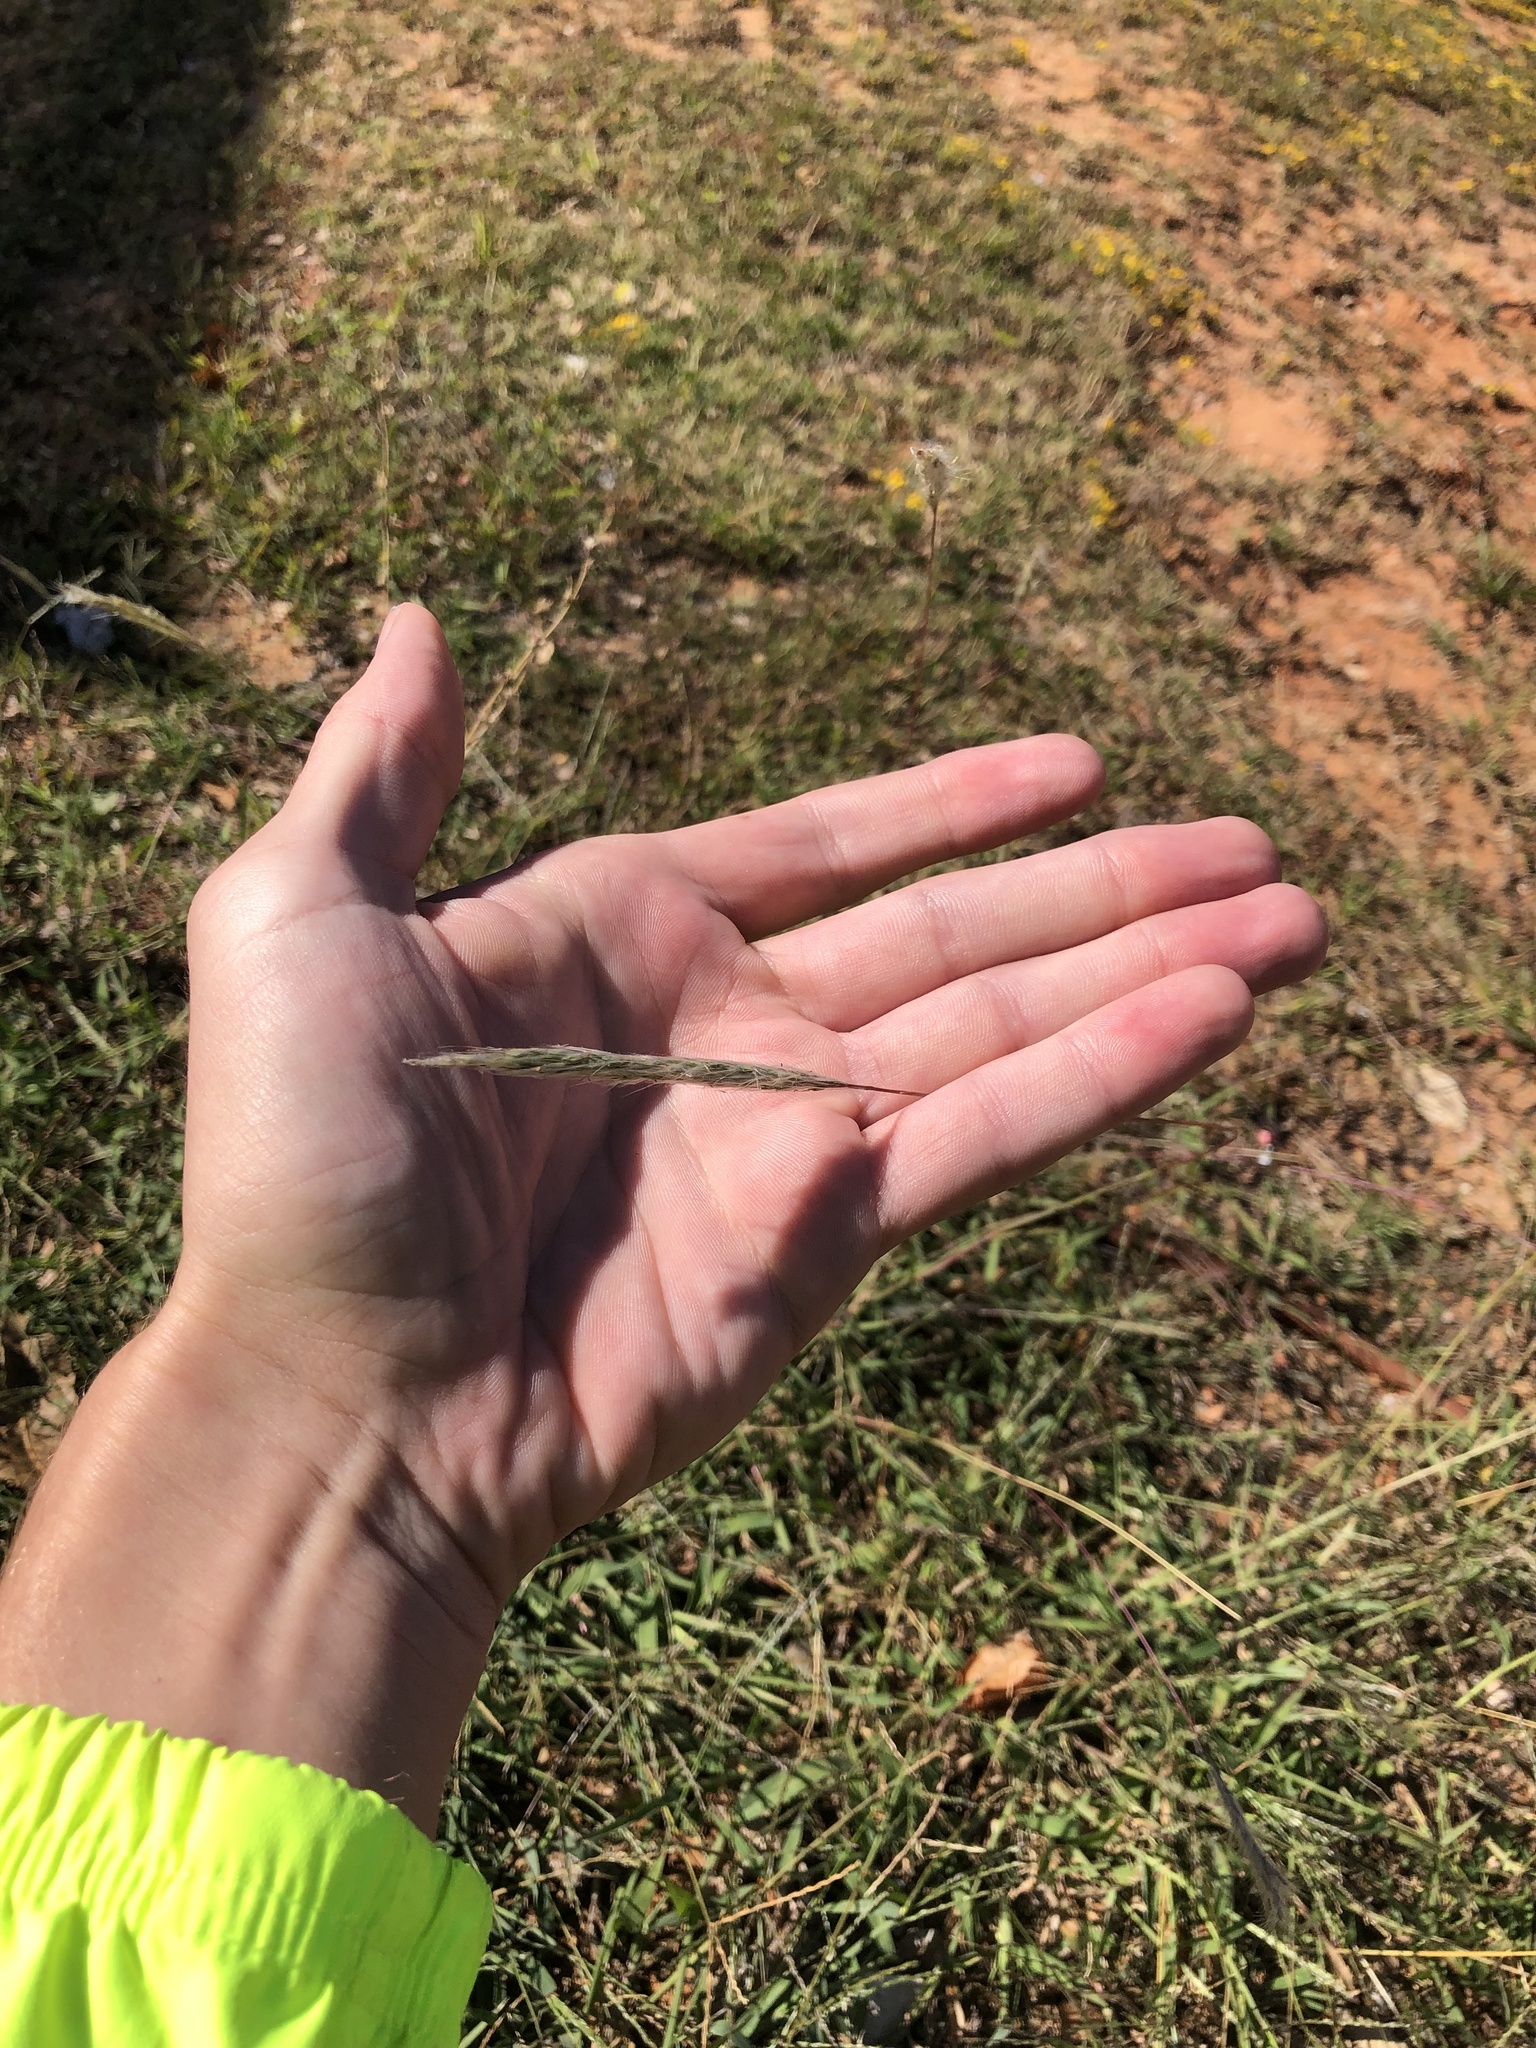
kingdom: Plantae
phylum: Tracheophyta
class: Liliopsida
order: Poales
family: Poaceae
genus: Bothriochloa
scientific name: Bothriochloa torreyana
